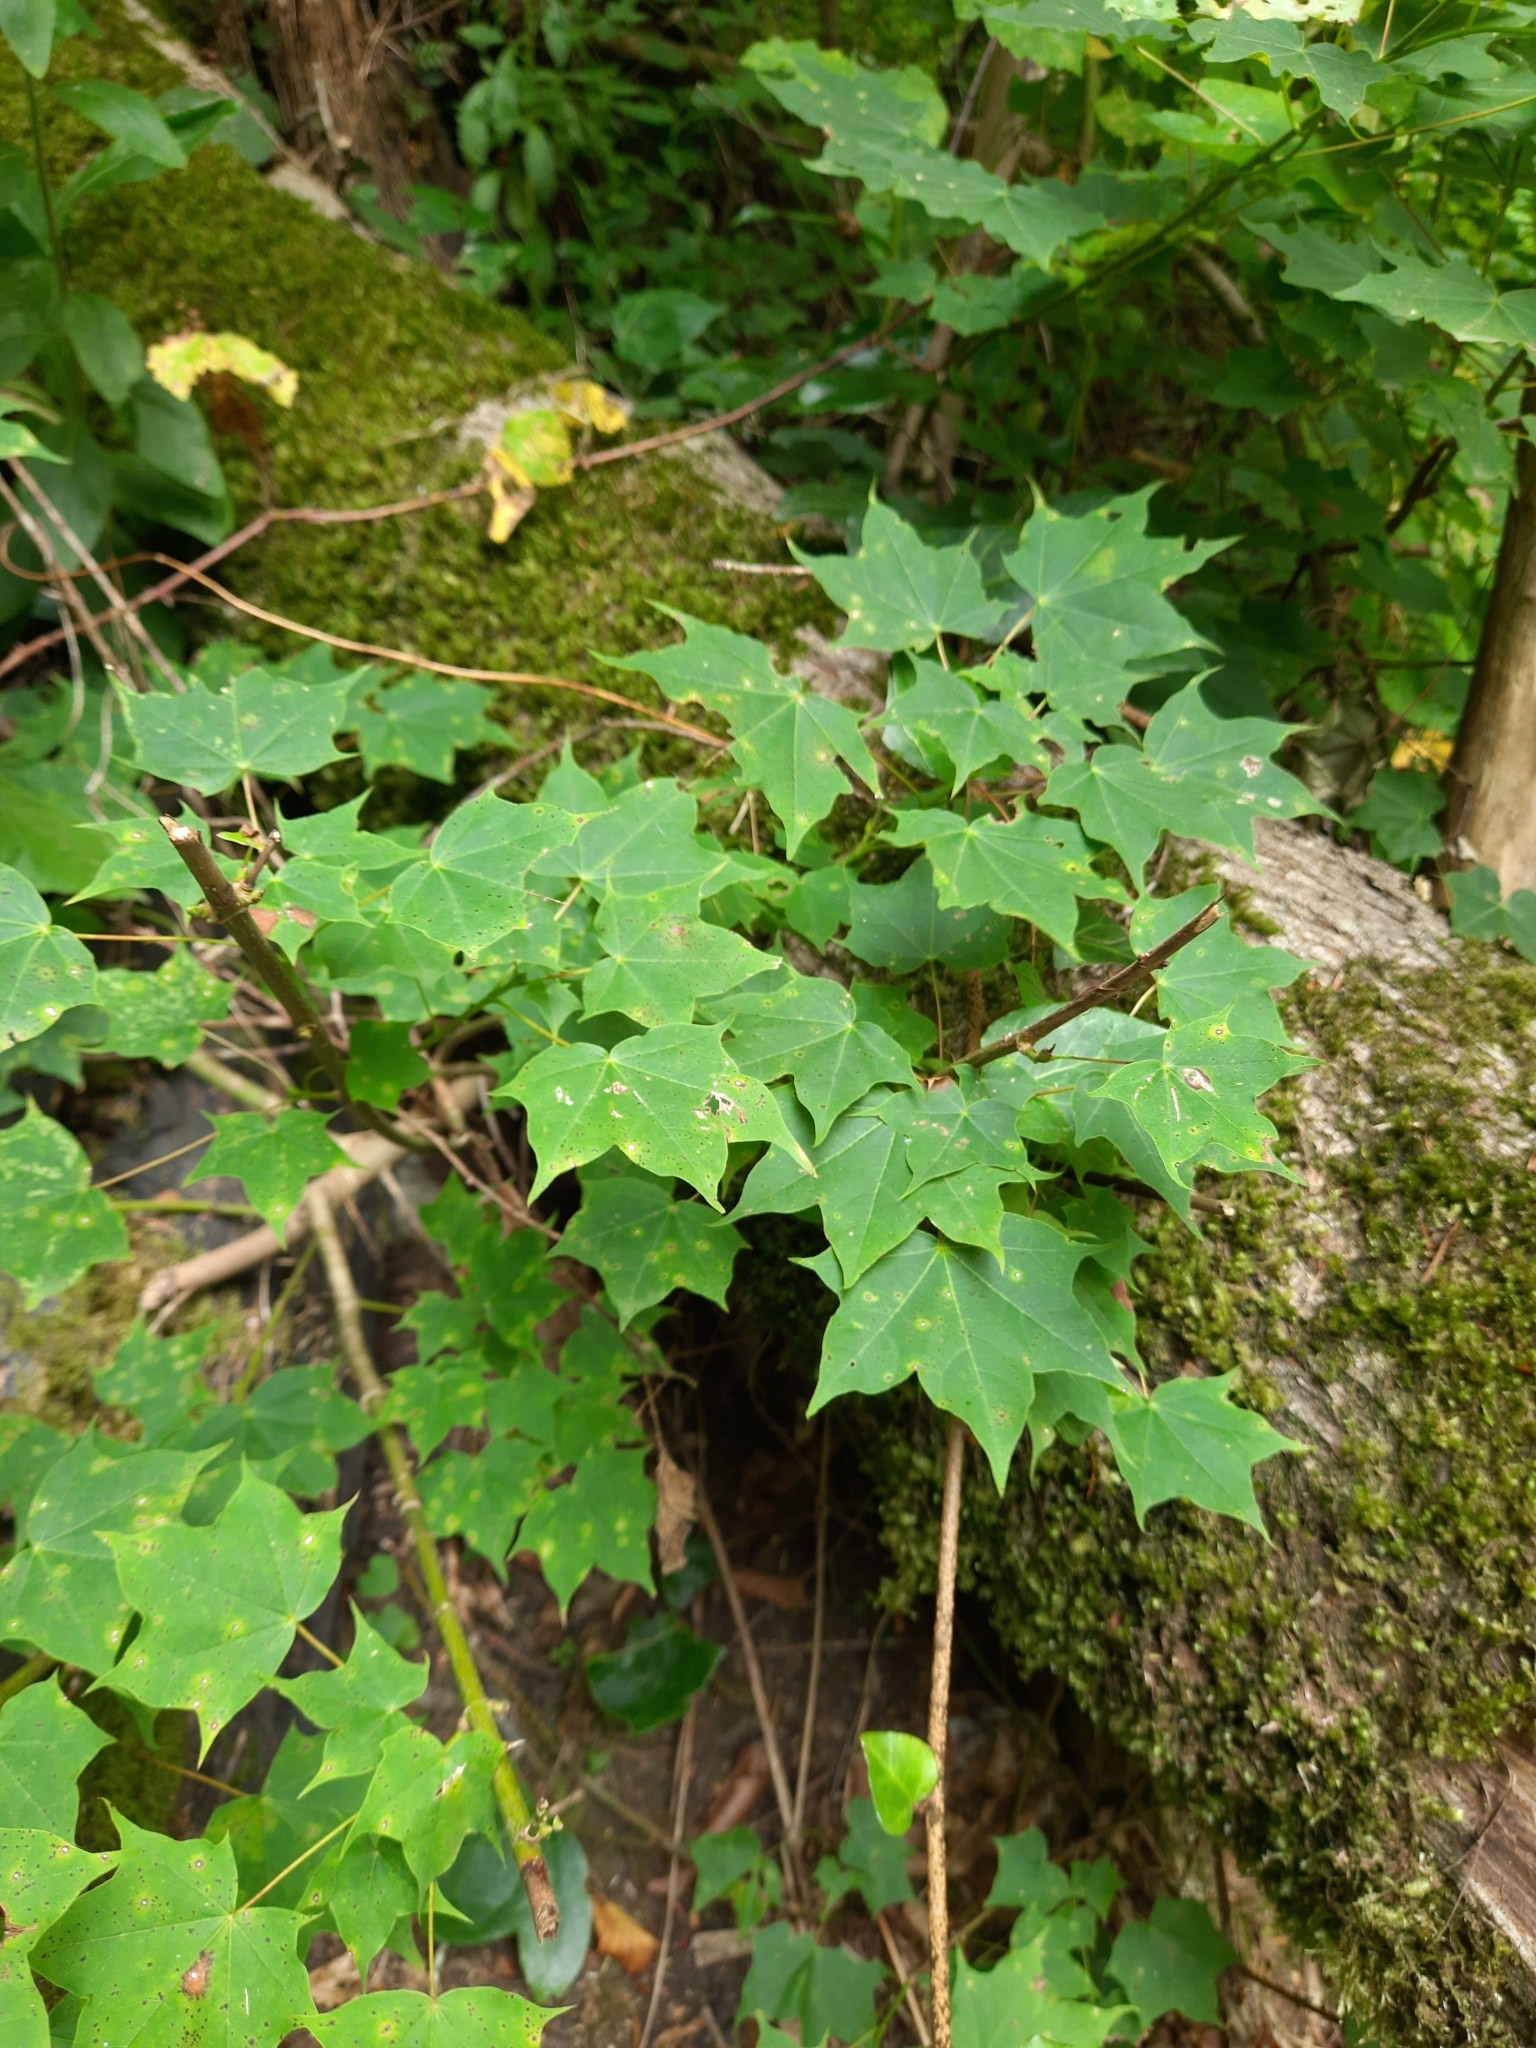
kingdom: Plantae
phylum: Tracheophyta
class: Magnoliopsida
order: Sapindales
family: Sapindaceae
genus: Acer
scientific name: Acer cappadocicum
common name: Cappadocian maple
